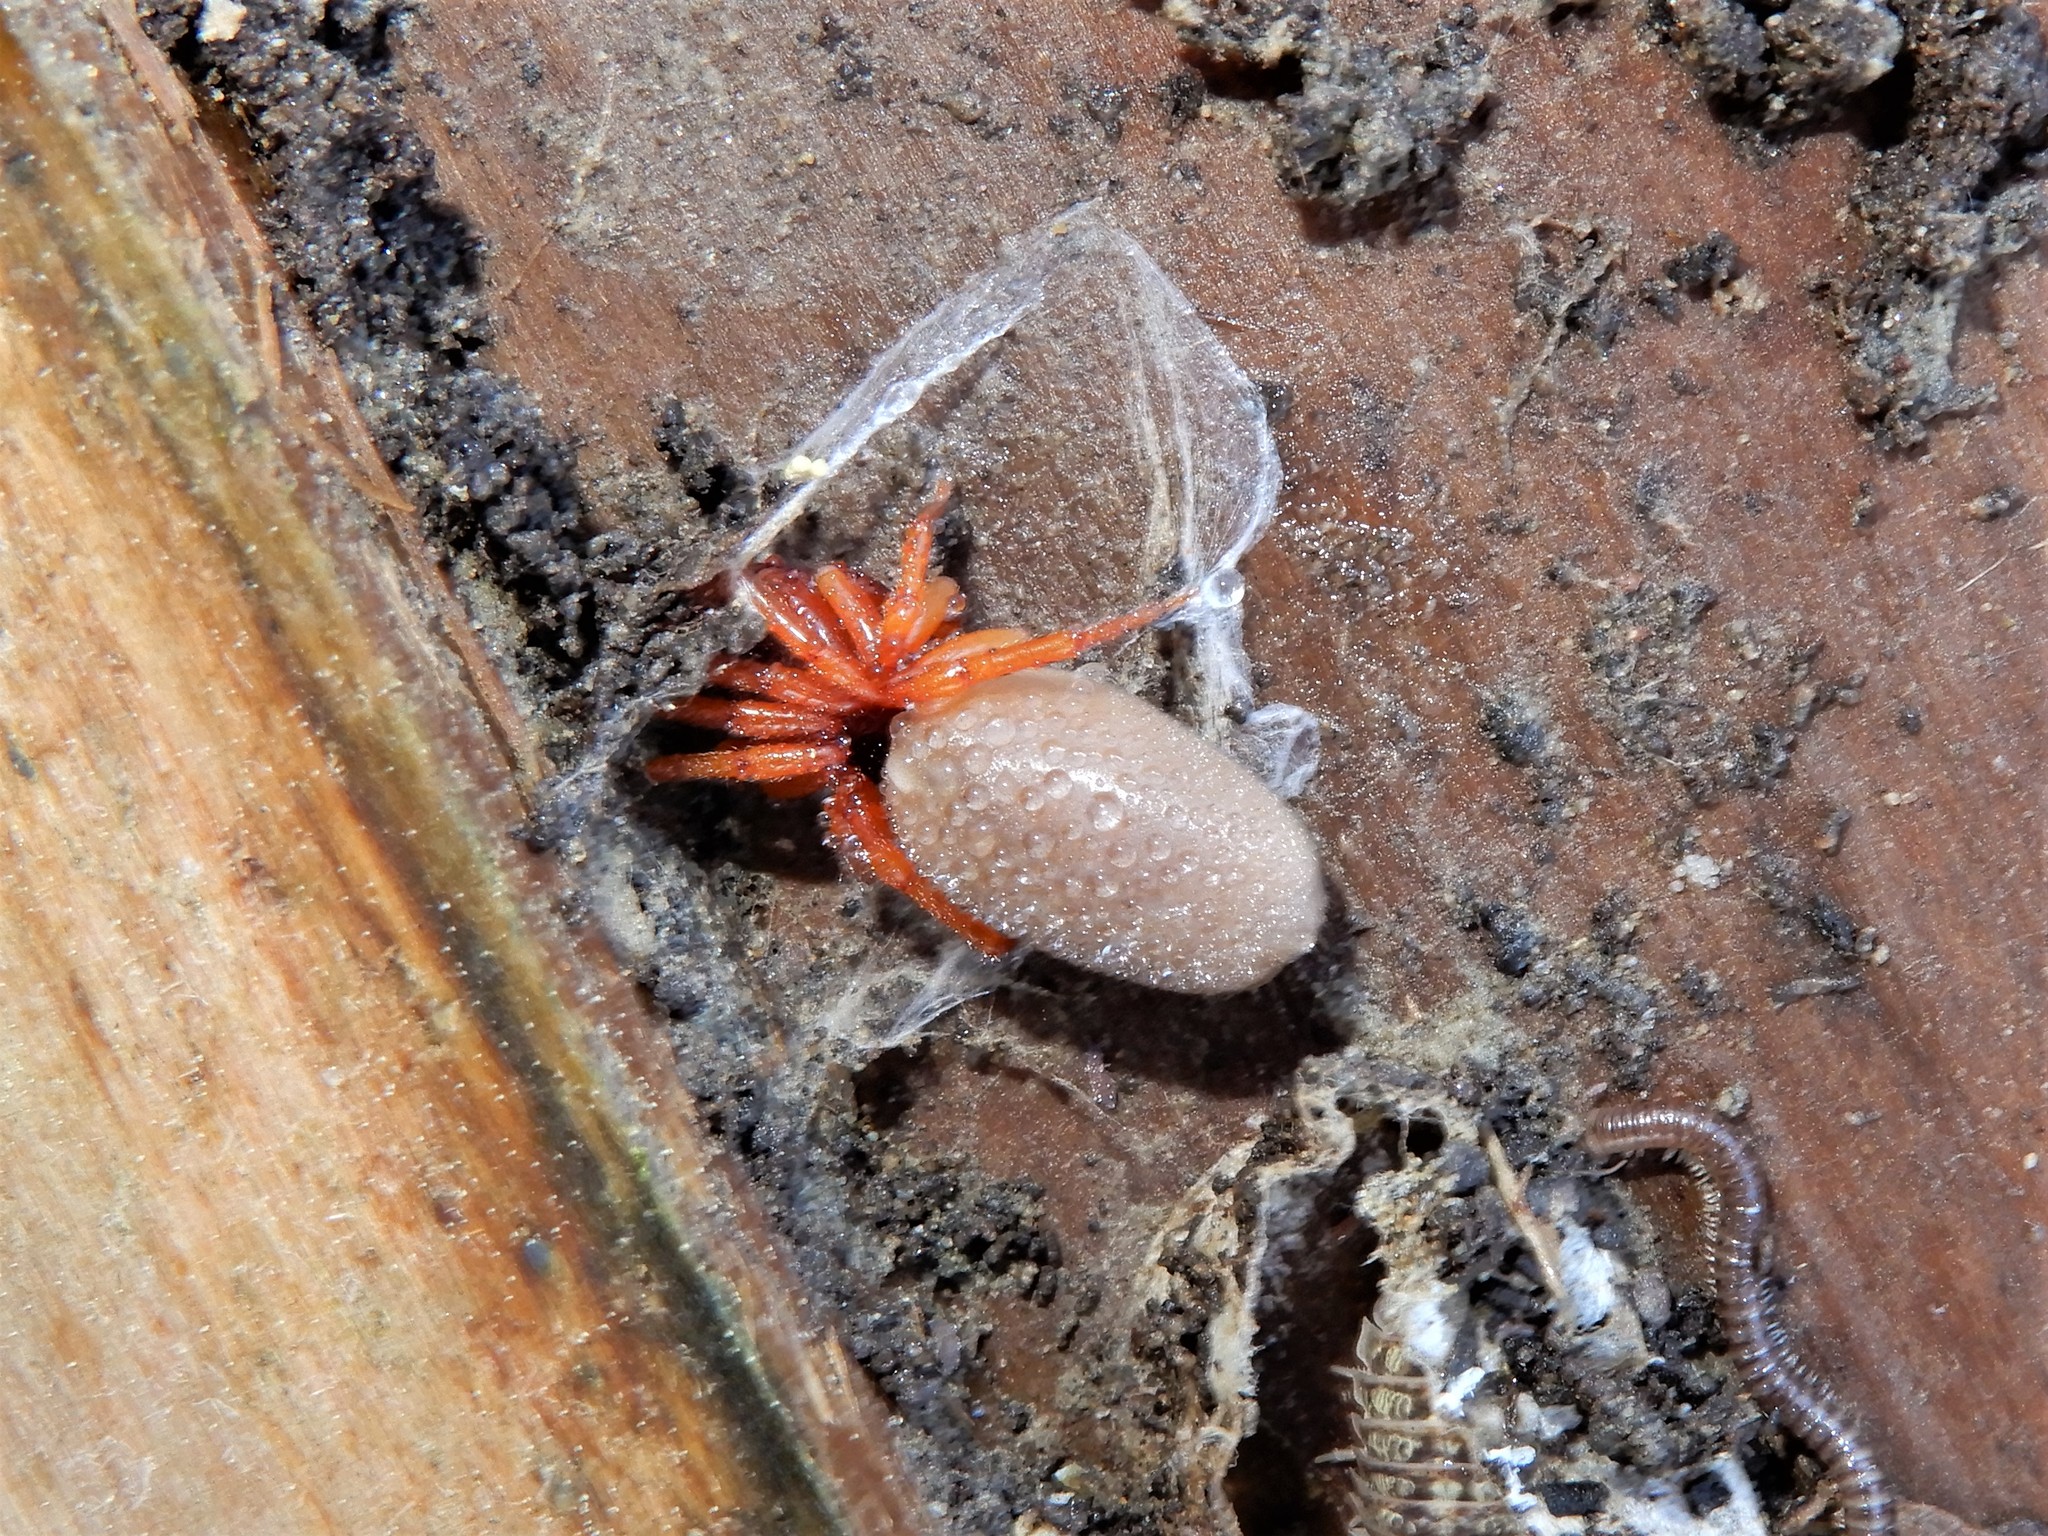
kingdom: Animalia
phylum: Arthropoda
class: Arachnida
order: Araneae
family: Dysderidae
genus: Dysdera
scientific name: Dysdera crocata
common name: Woodlouse spider
